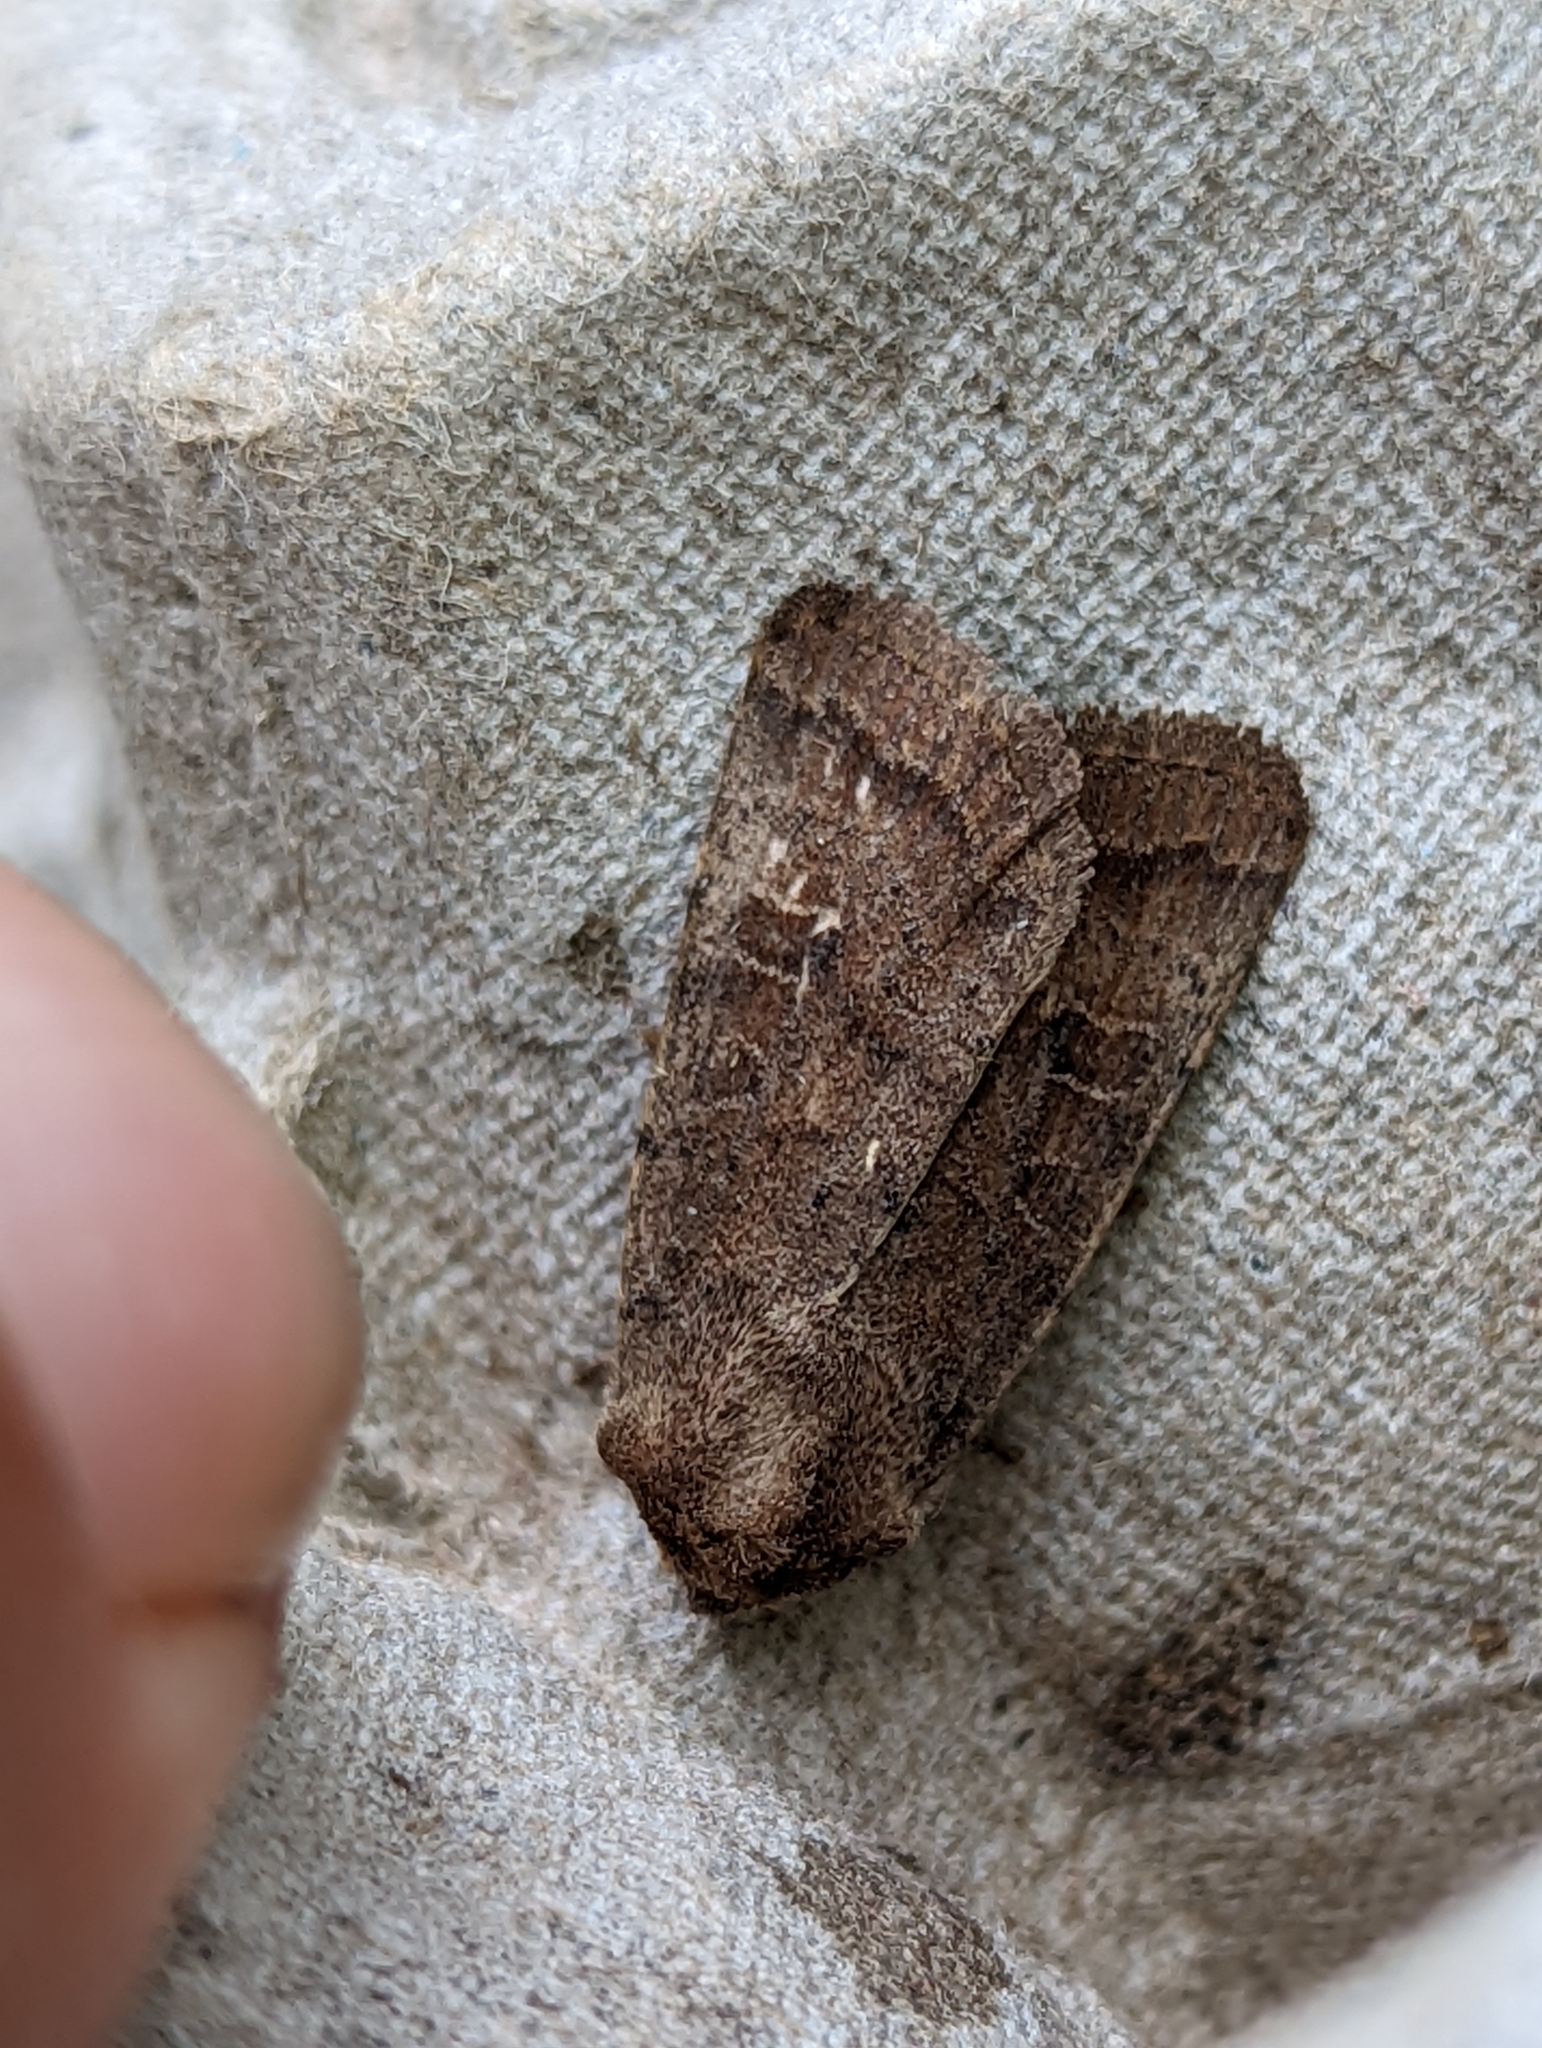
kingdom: Animalia
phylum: Arthropoda
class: Insecta
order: Lepidoptera
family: Noctuidae
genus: Hoplodrina
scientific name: Hoplodrina octogenaria
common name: Uncertain
